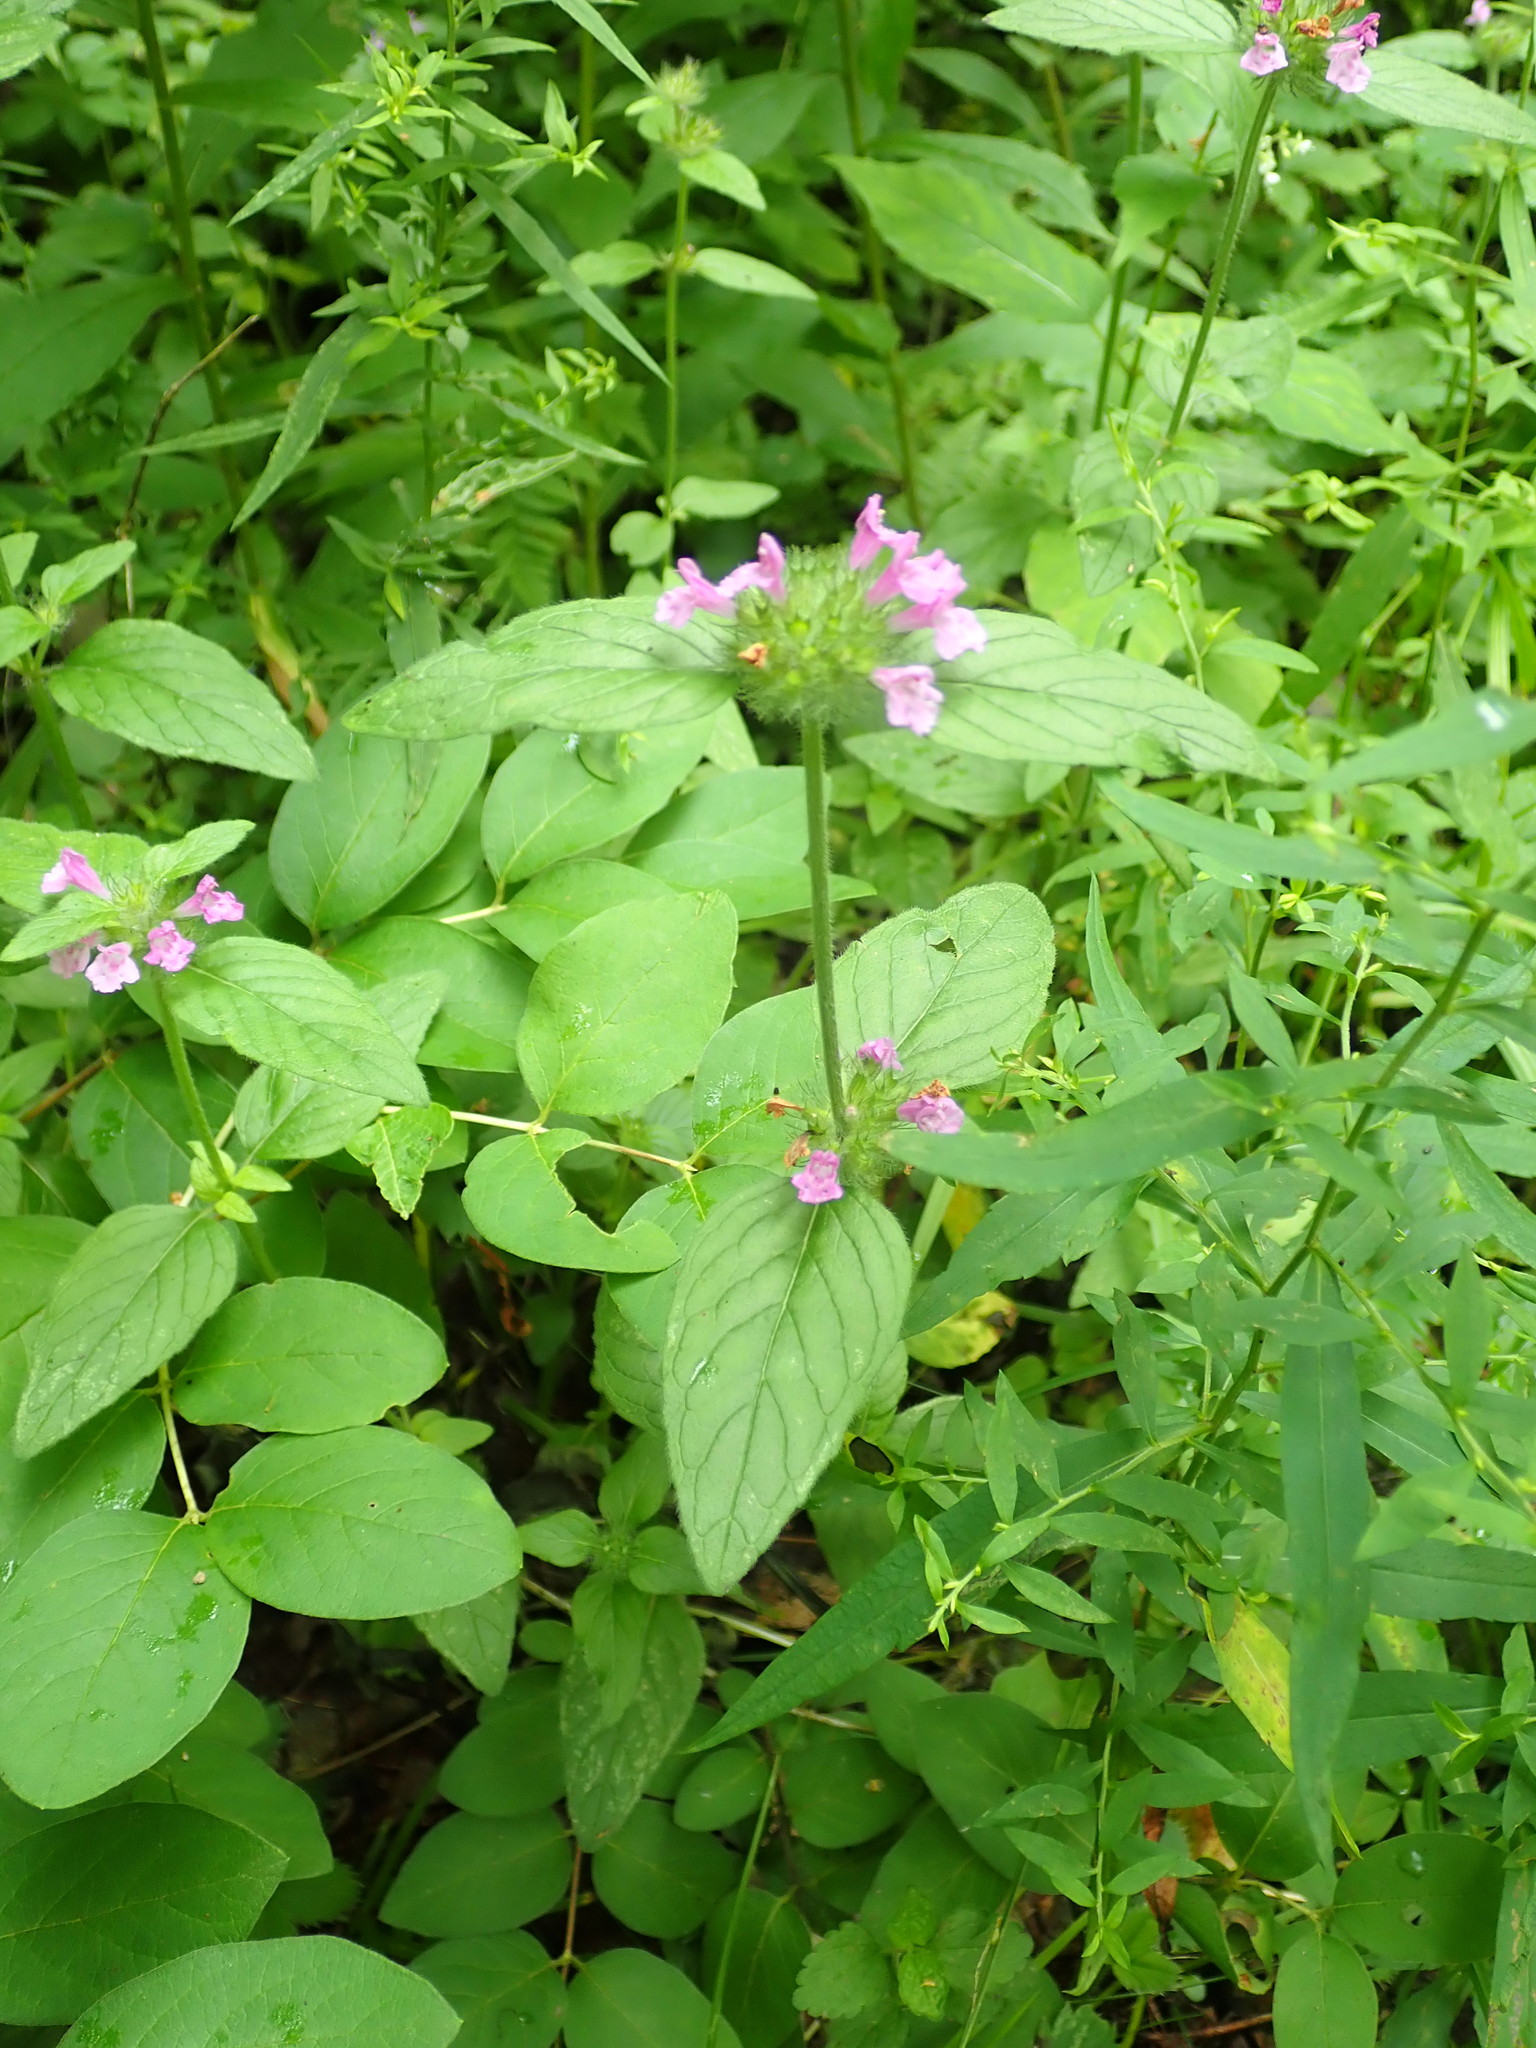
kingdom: Plantae
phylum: Tracheophyta
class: Magnoliopsida
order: Lamiales
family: Lamiaceae
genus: Clinopodium
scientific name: Clinopodium vulgare
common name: Wild basil
